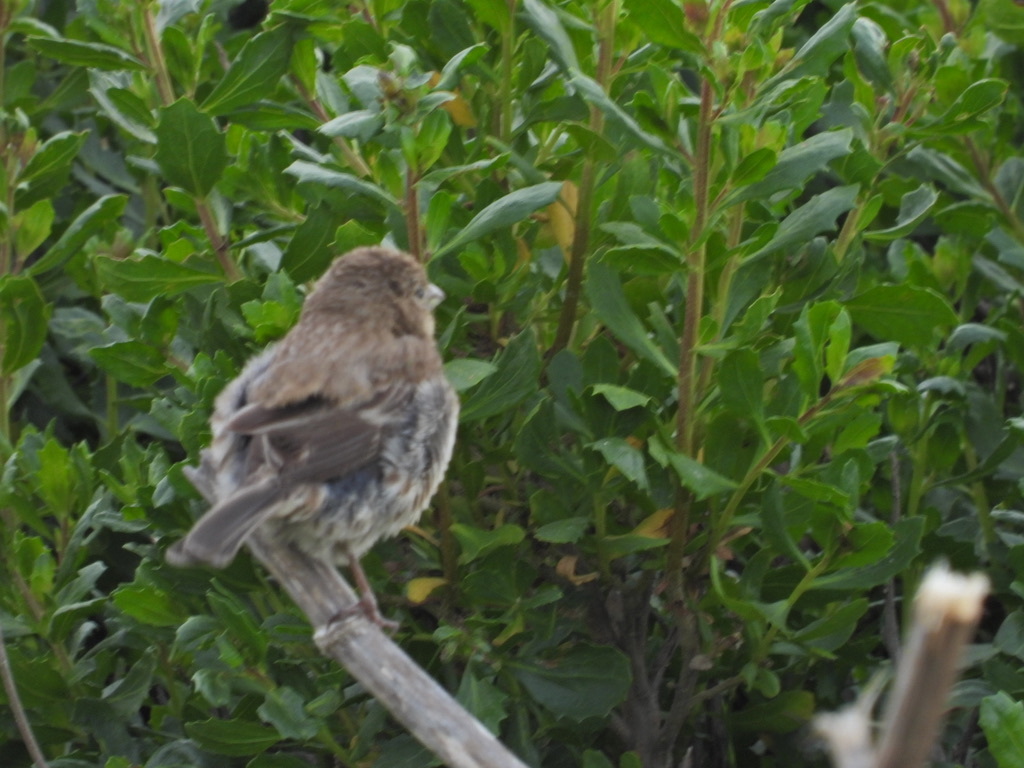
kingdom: Animalia
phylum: Chordata
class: Aves
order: Passeriformes
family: Fringillidae
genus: Haemorhous
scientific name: Haemorhous mexicanus
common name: House finch
